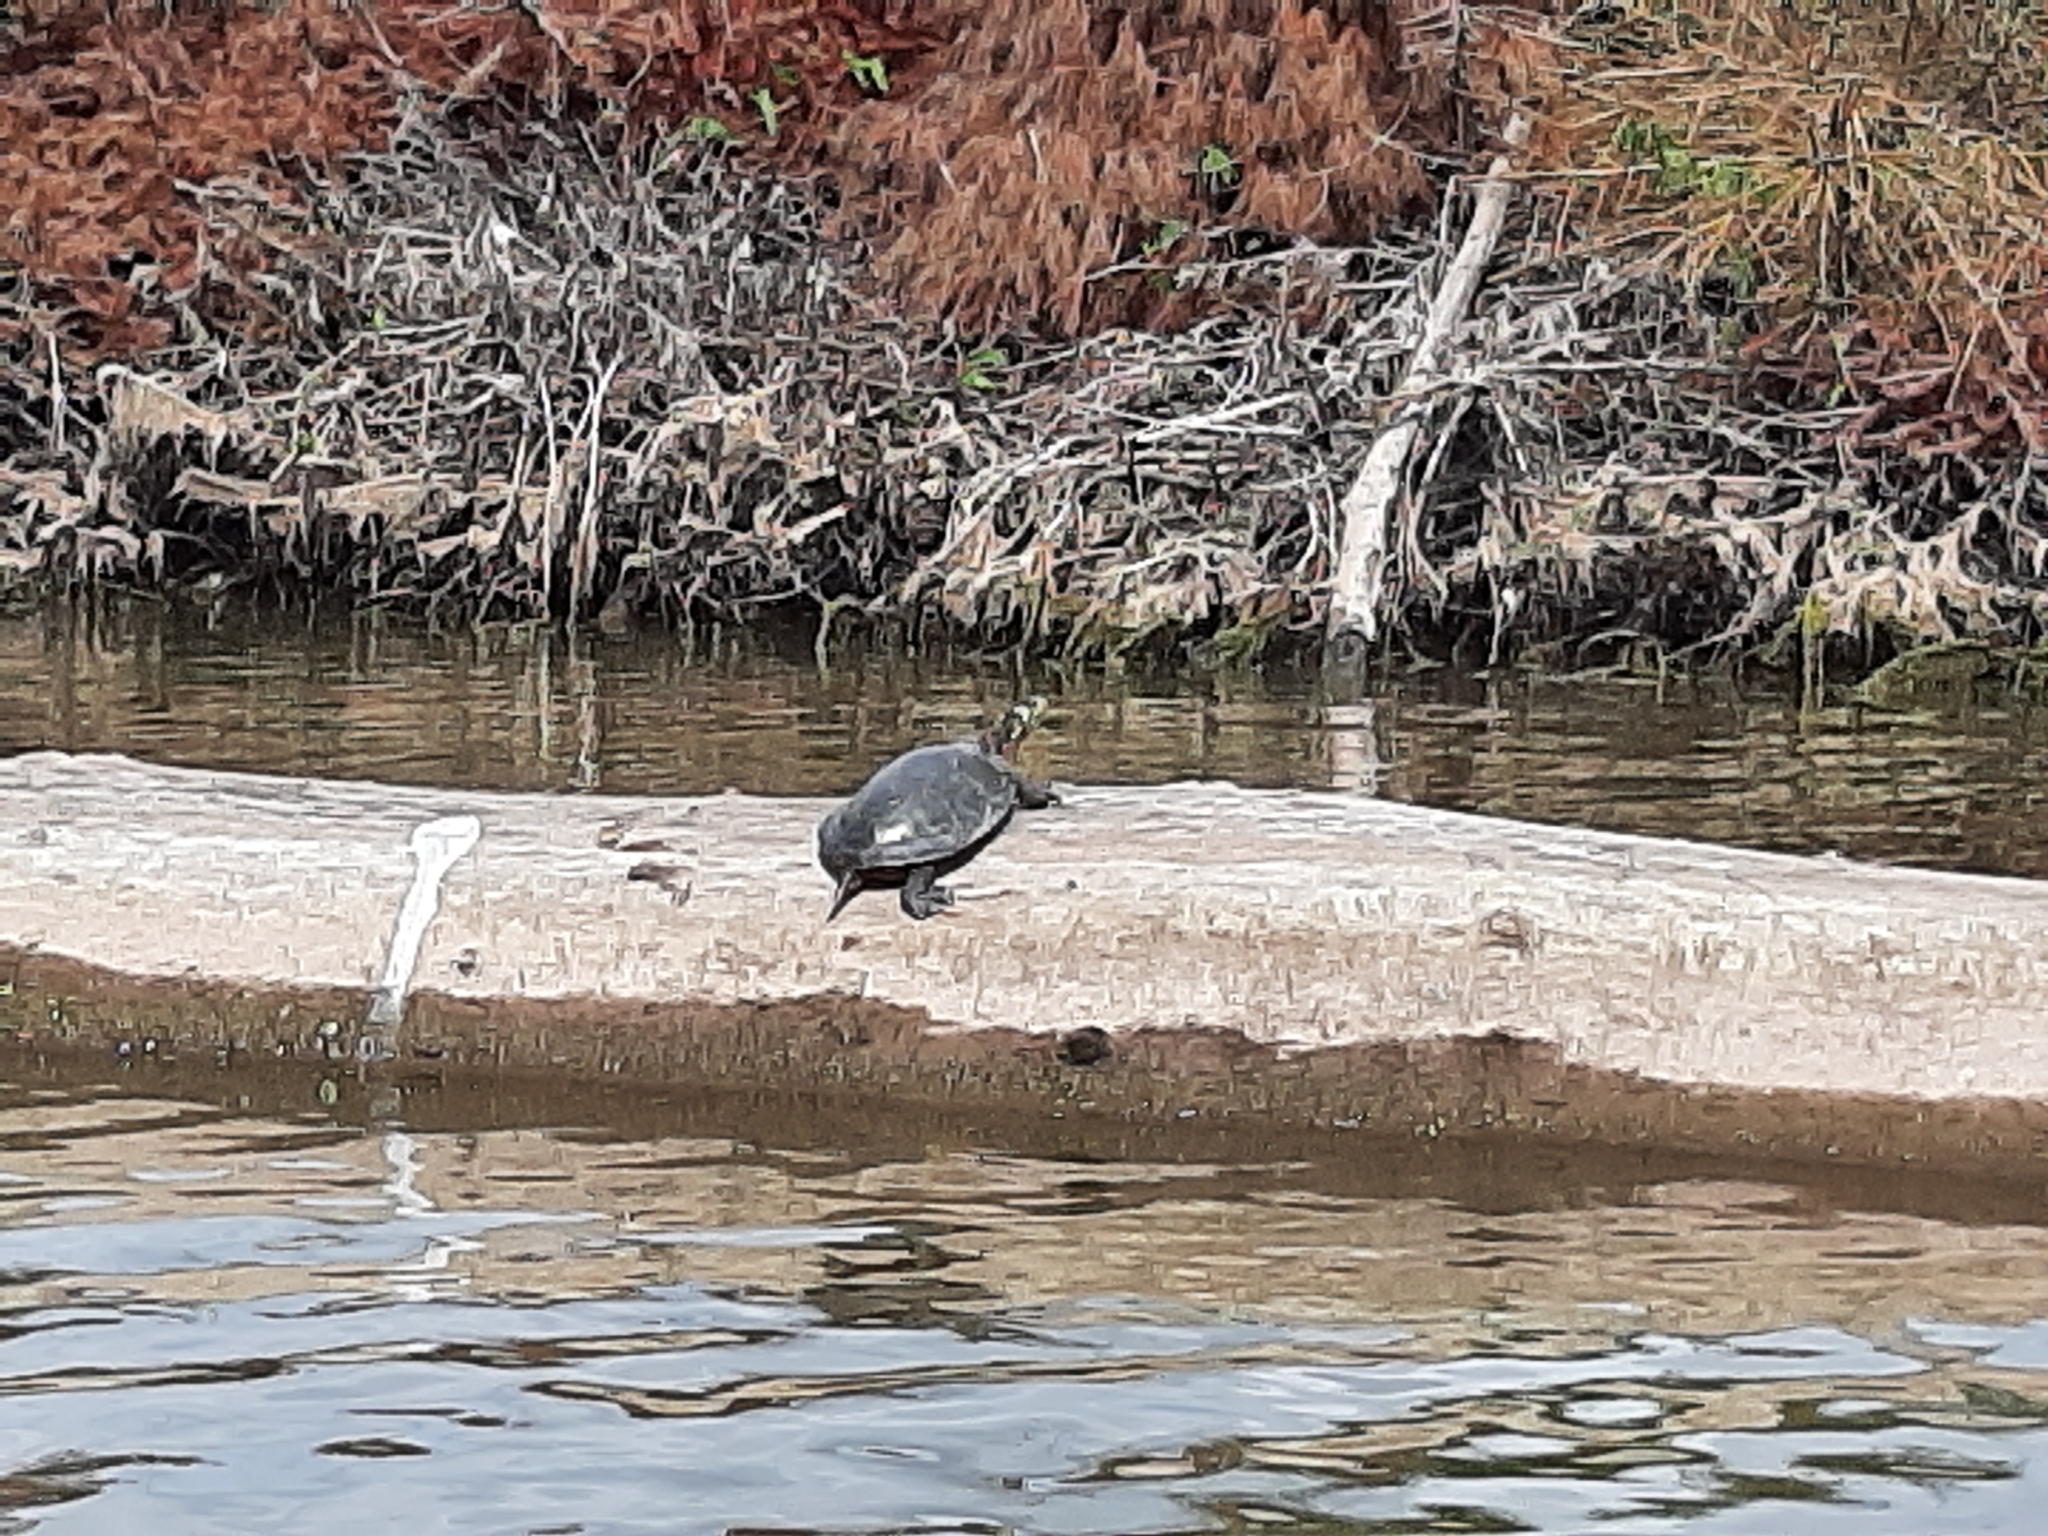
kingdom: Animalia
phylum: Chordata
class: Testudines
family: Emydidae
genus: Chrysemys
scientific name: Chrysemys picta
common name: Painted turtle
